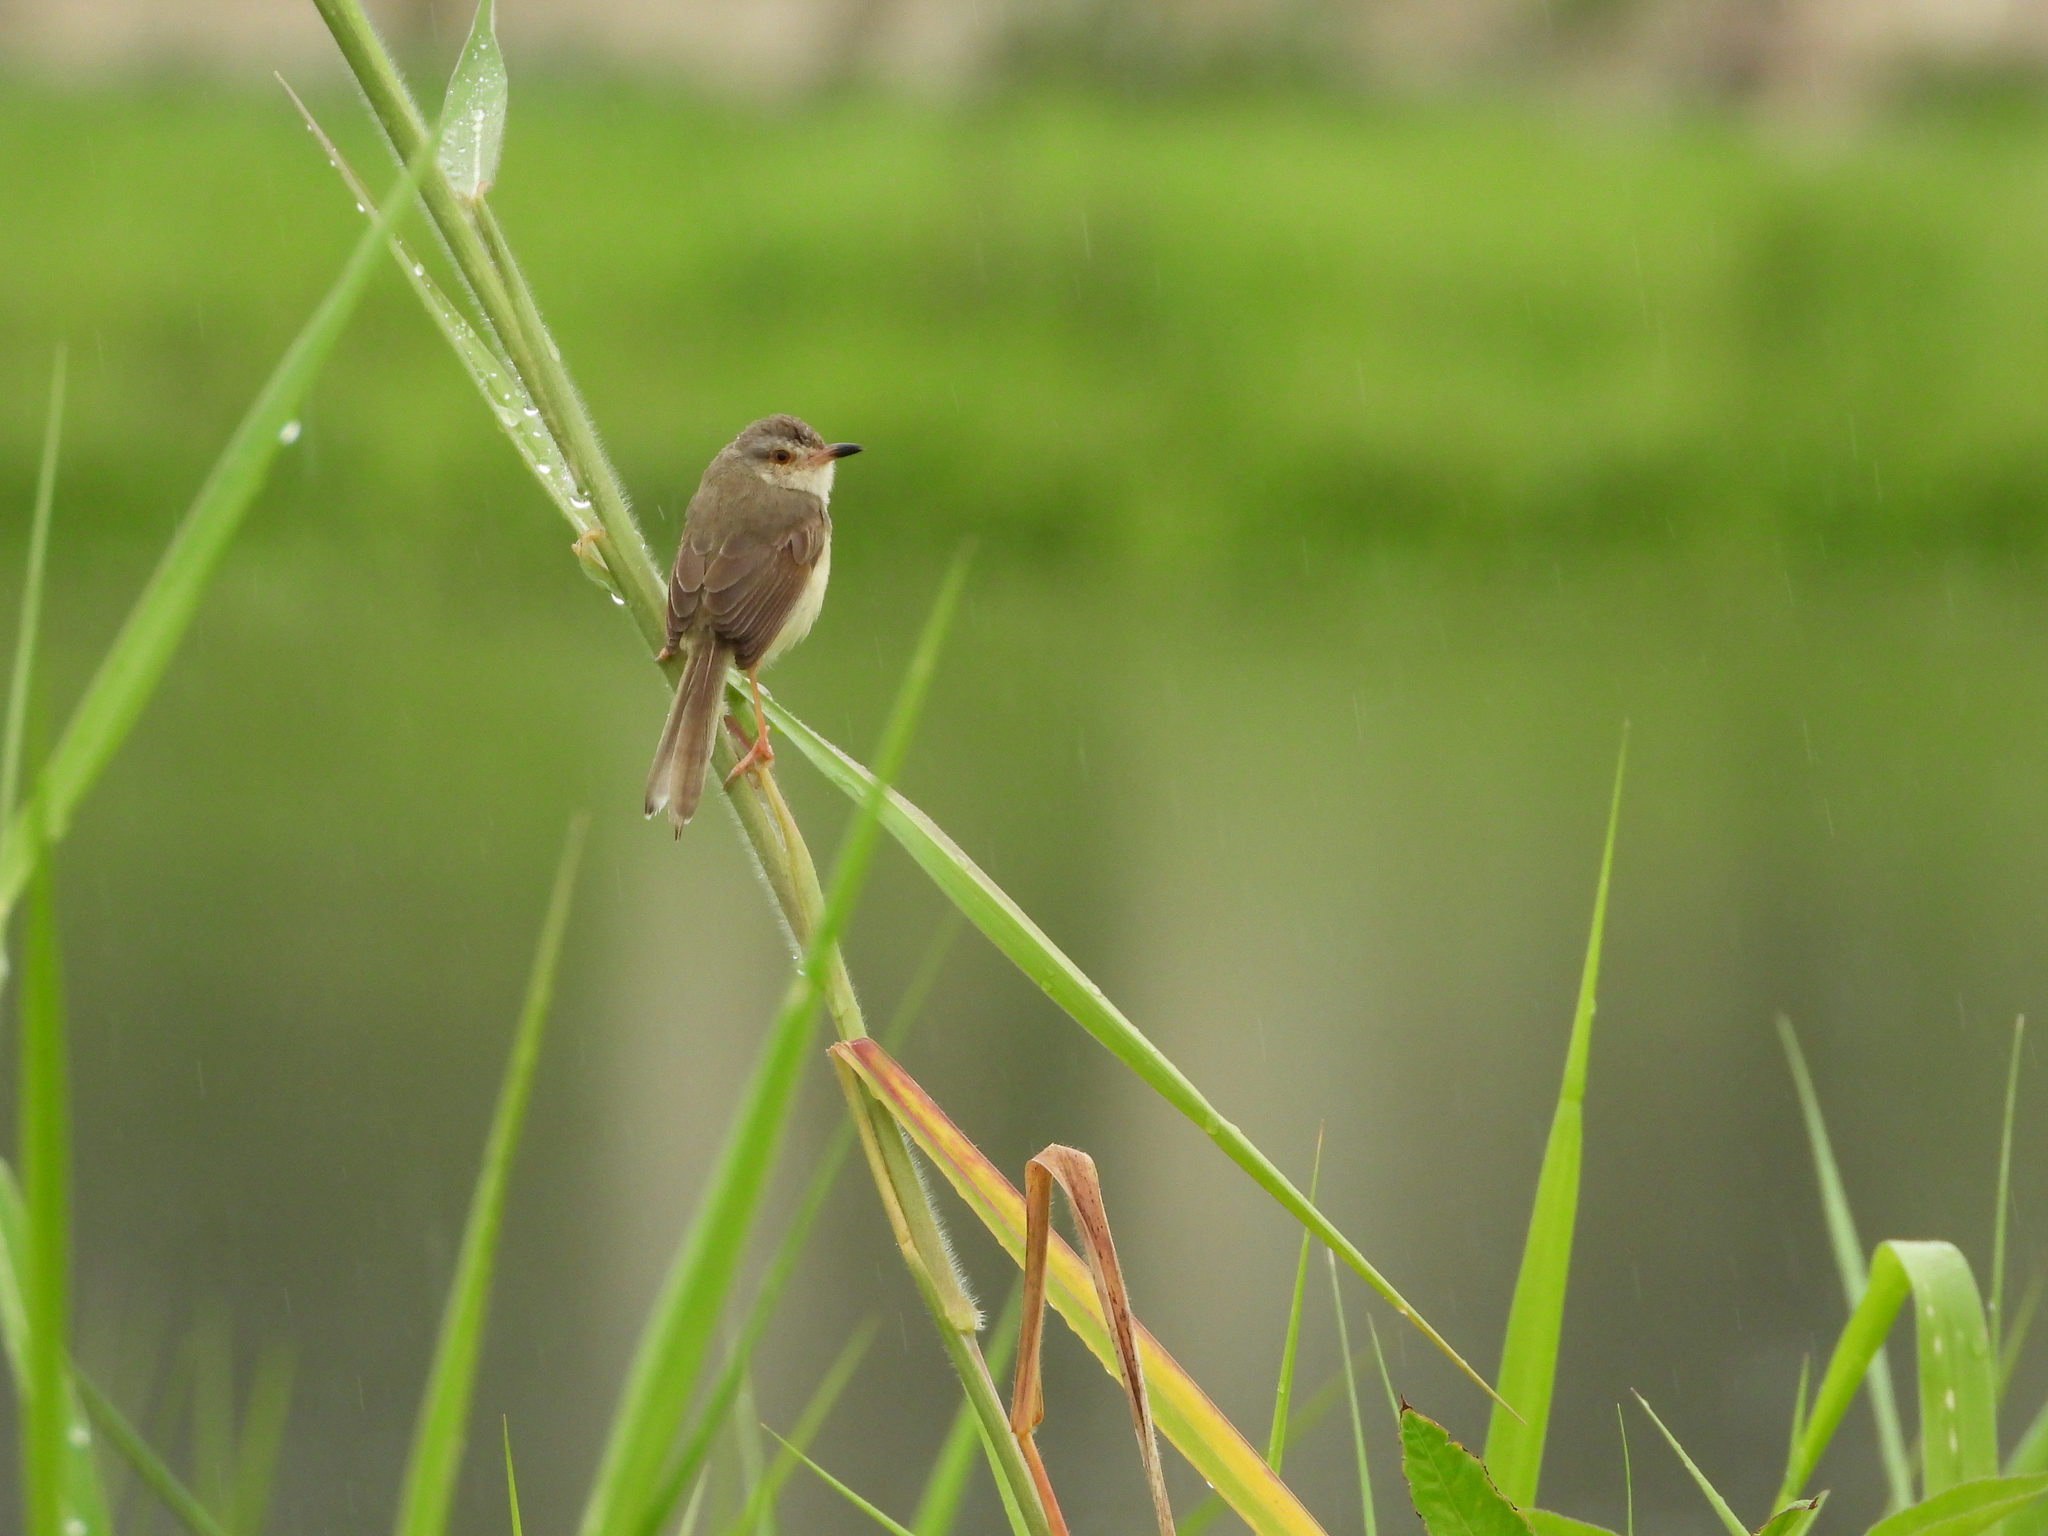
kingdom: Animalia
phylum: Chordata
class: Aves
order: Passeriformes
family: Cisticolidae
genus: Prinia
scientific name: Prinia inornata
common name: Plain prinia
